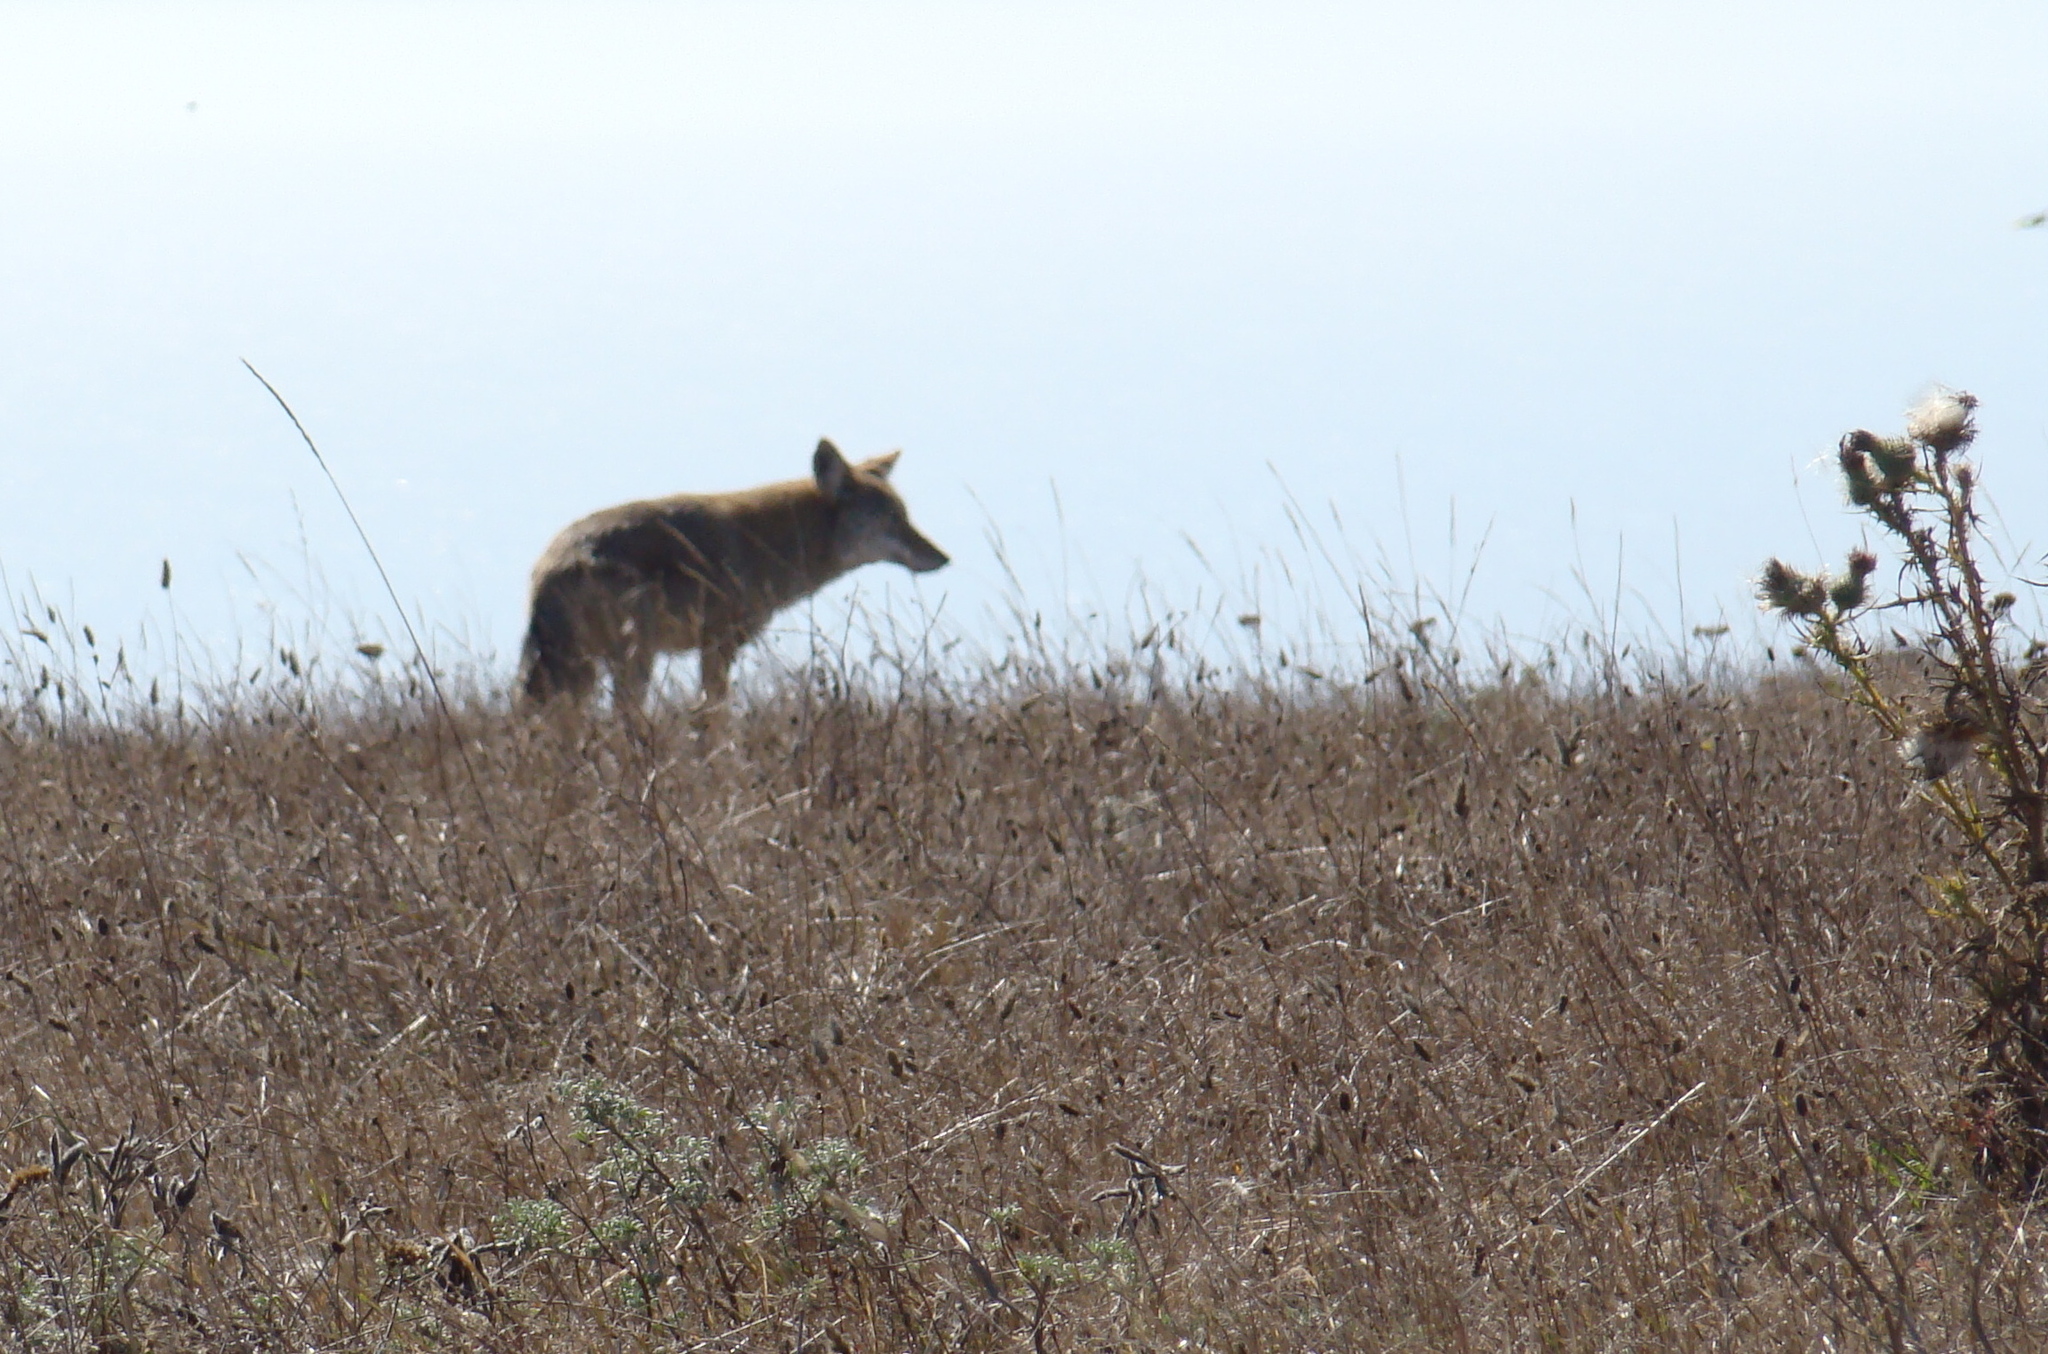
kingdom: Animalia
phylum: Chordata
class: Mammalia
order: Carnivora
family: Canidae
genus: Canis
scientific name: Canis latrans
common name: Coyote
